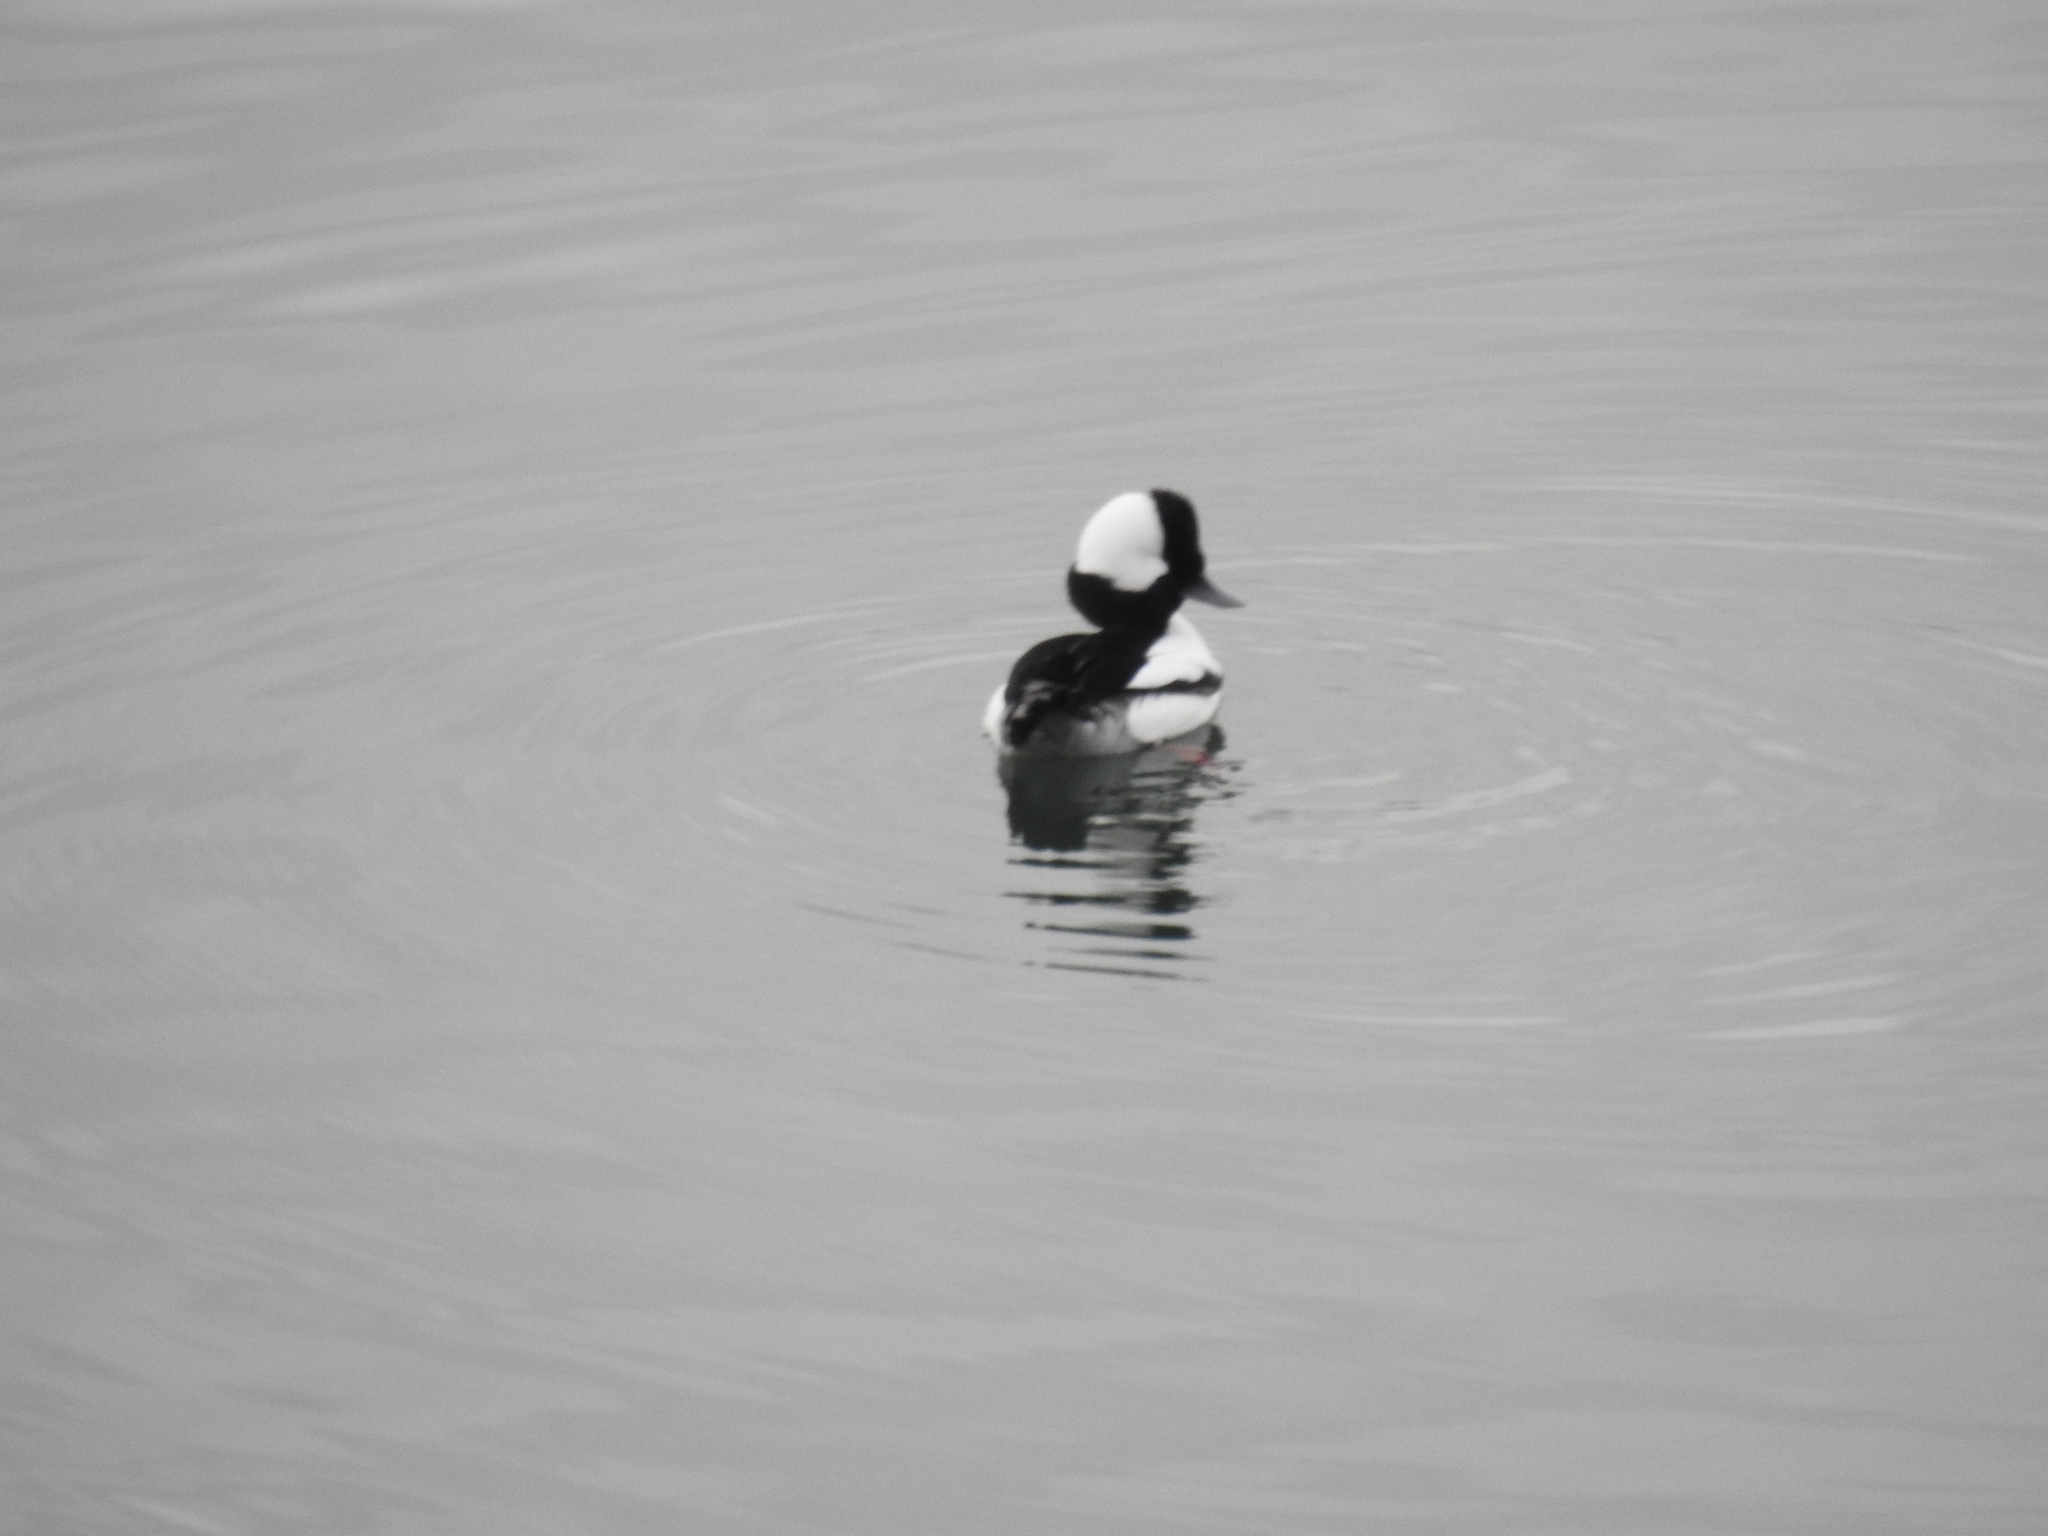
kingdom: Animalia
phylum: Chordata
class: Aves
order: Anseriformes
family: Anatidae
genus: Bucephala
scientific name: Bucephala albeola
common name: Bufflehead
